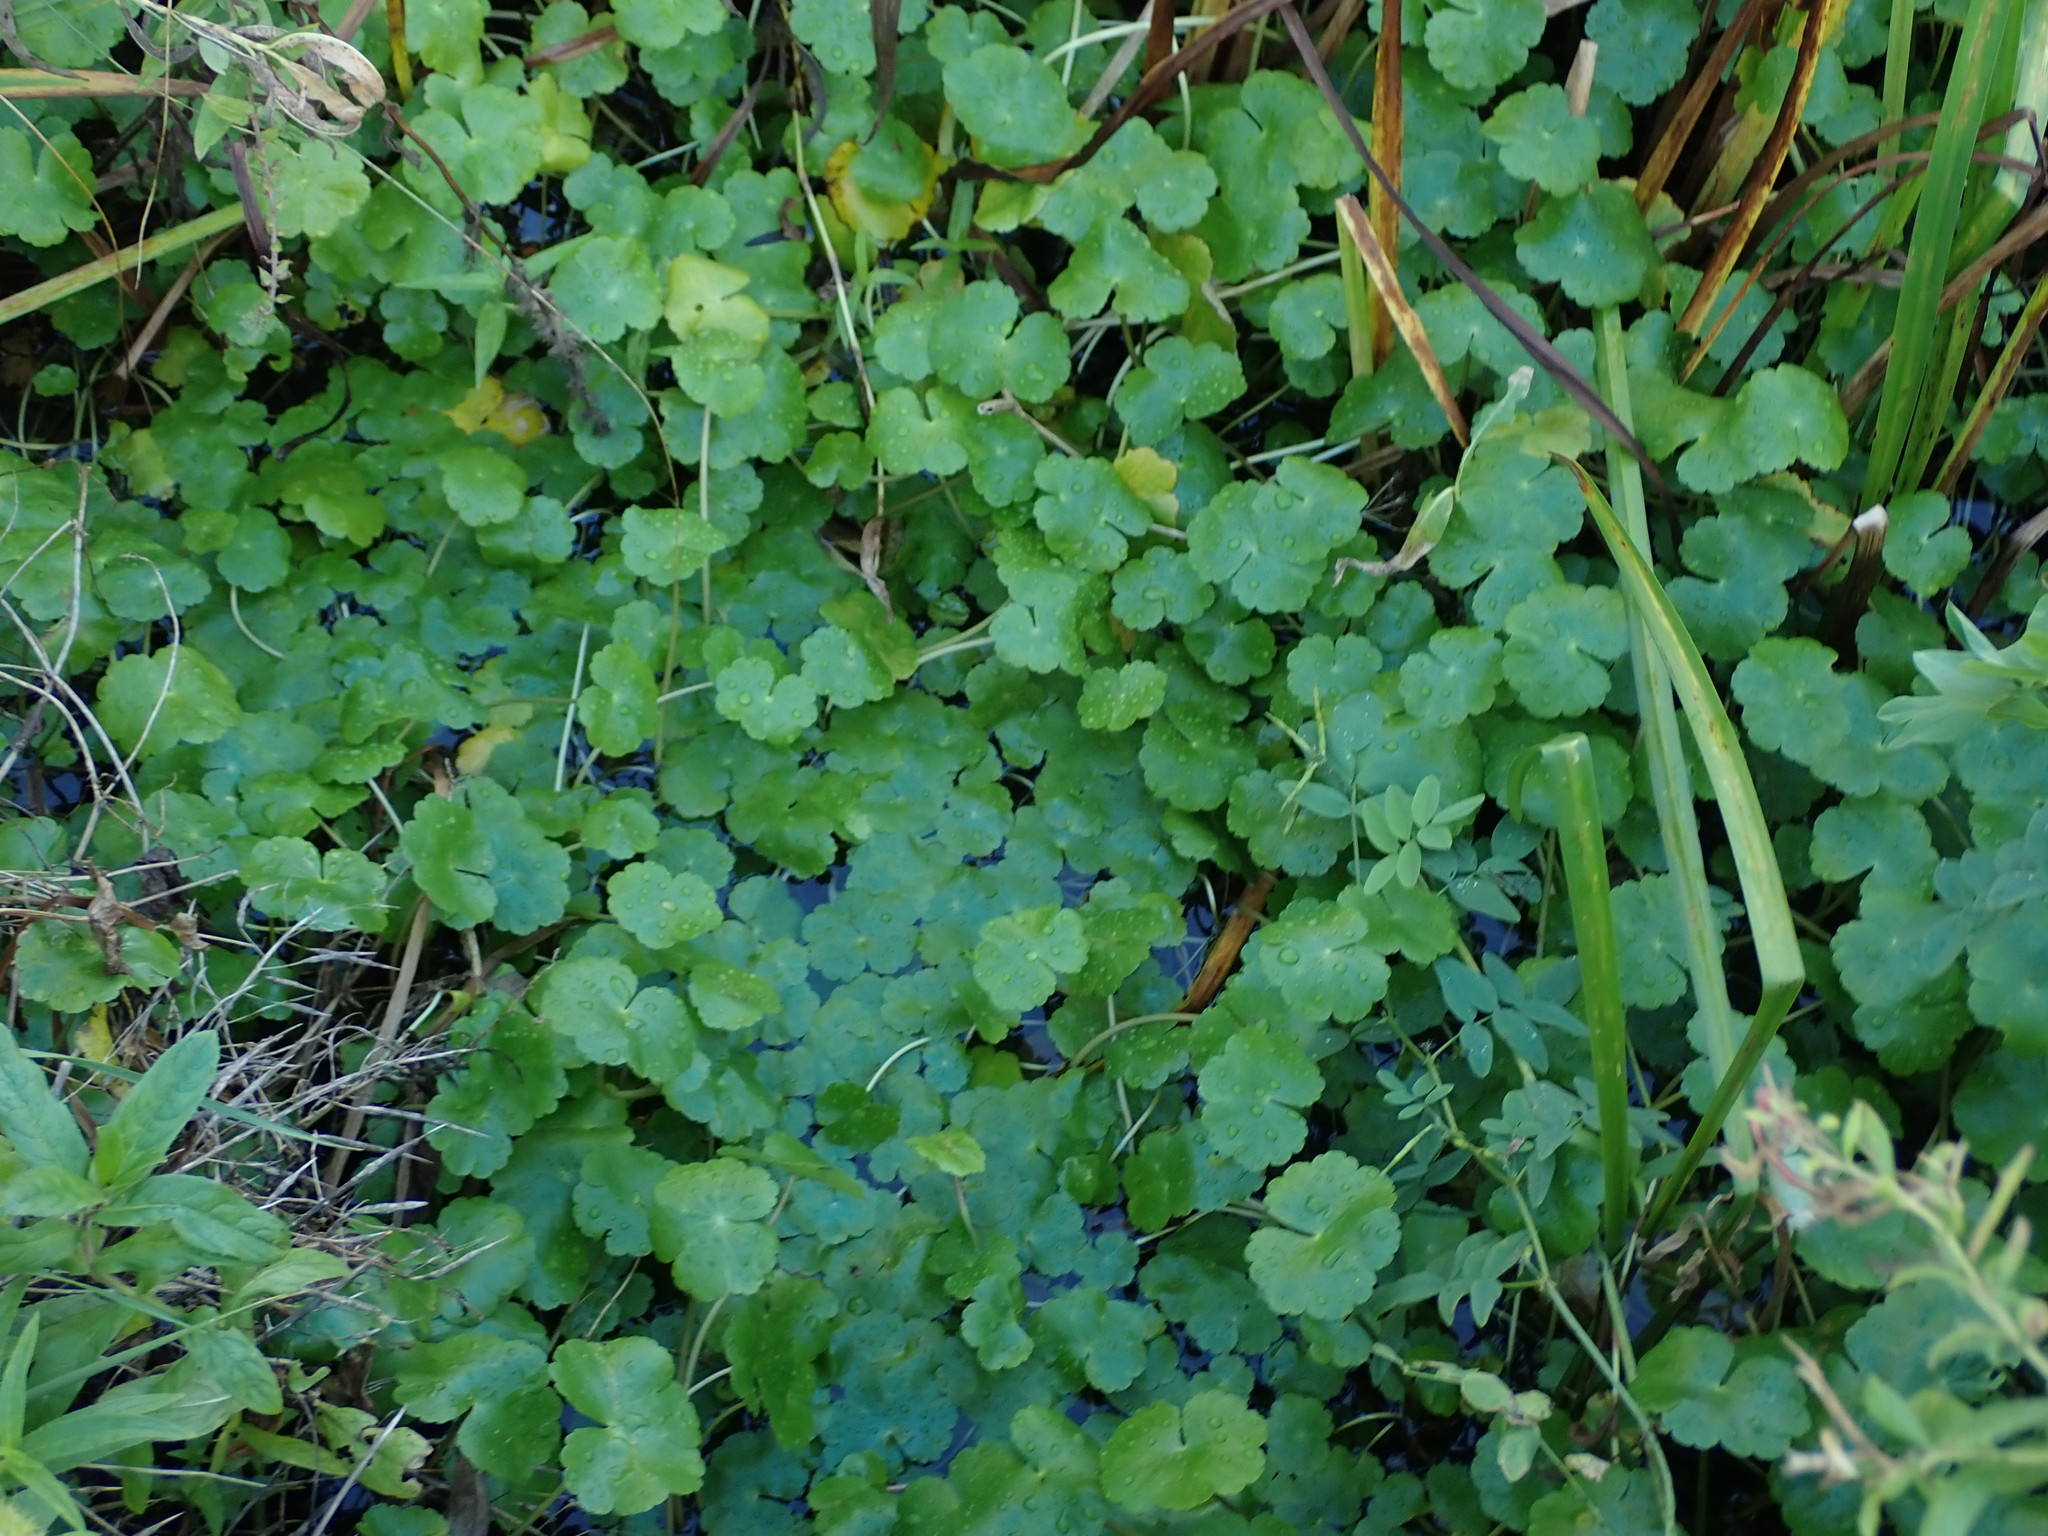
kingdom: Plantae
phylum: Tracheophyta
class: Magnoliopsida
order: Apiales
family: Araliaceae
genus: Hydrocotyle
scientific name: Hydrocotyle ranunculoides
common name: Floating pennywort
